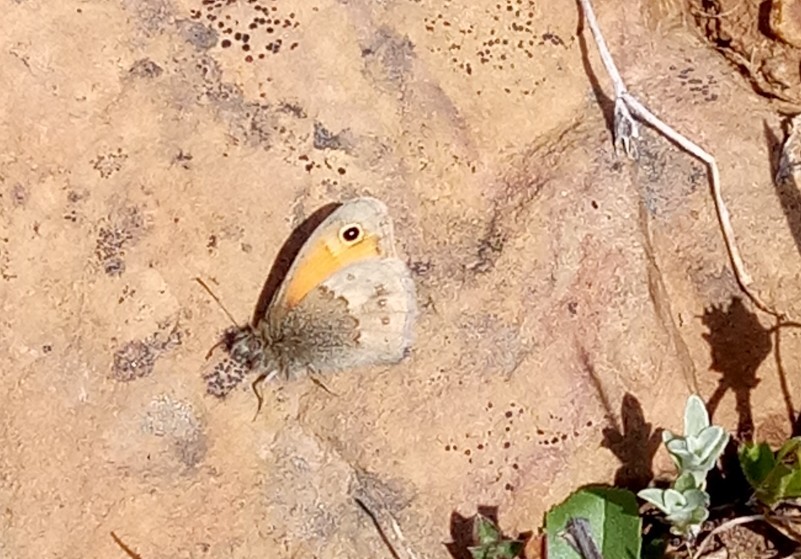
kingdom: Animalia
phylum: Arthropoda
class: Insecta
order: Lepidoptera
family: Nymphalidae
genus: Coenonympha
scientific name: Coenonympha pamphilus
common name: Small heath
